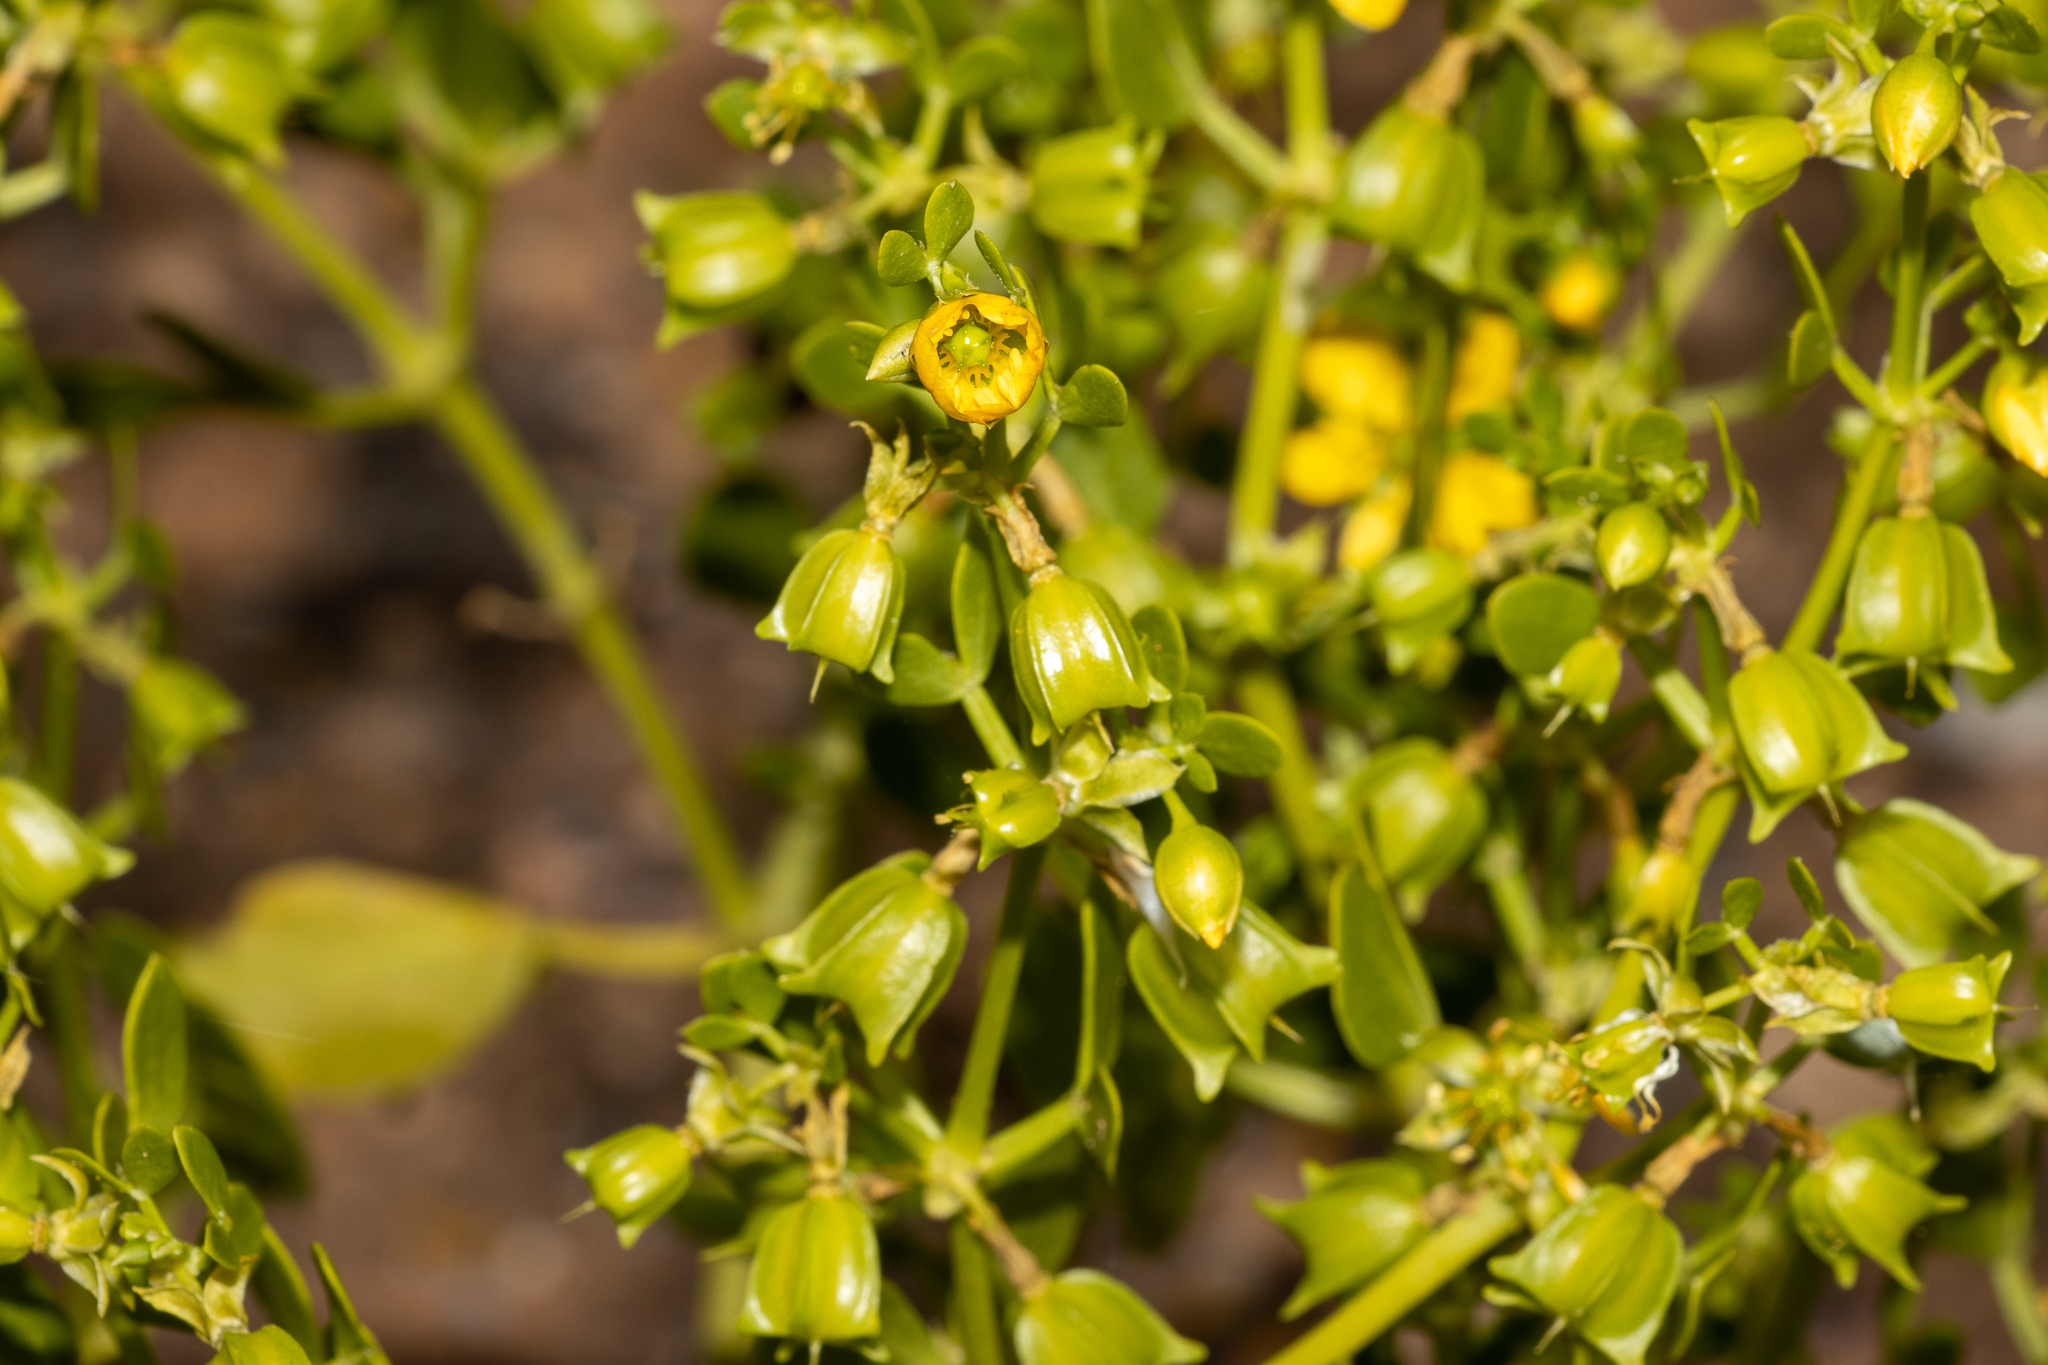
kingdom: Plantae
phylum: Tracheophyta
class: Magnoliopsida
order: Zygophyllales
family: Zygophyllaceae
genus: Roepera
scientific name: Roepera apiculata
